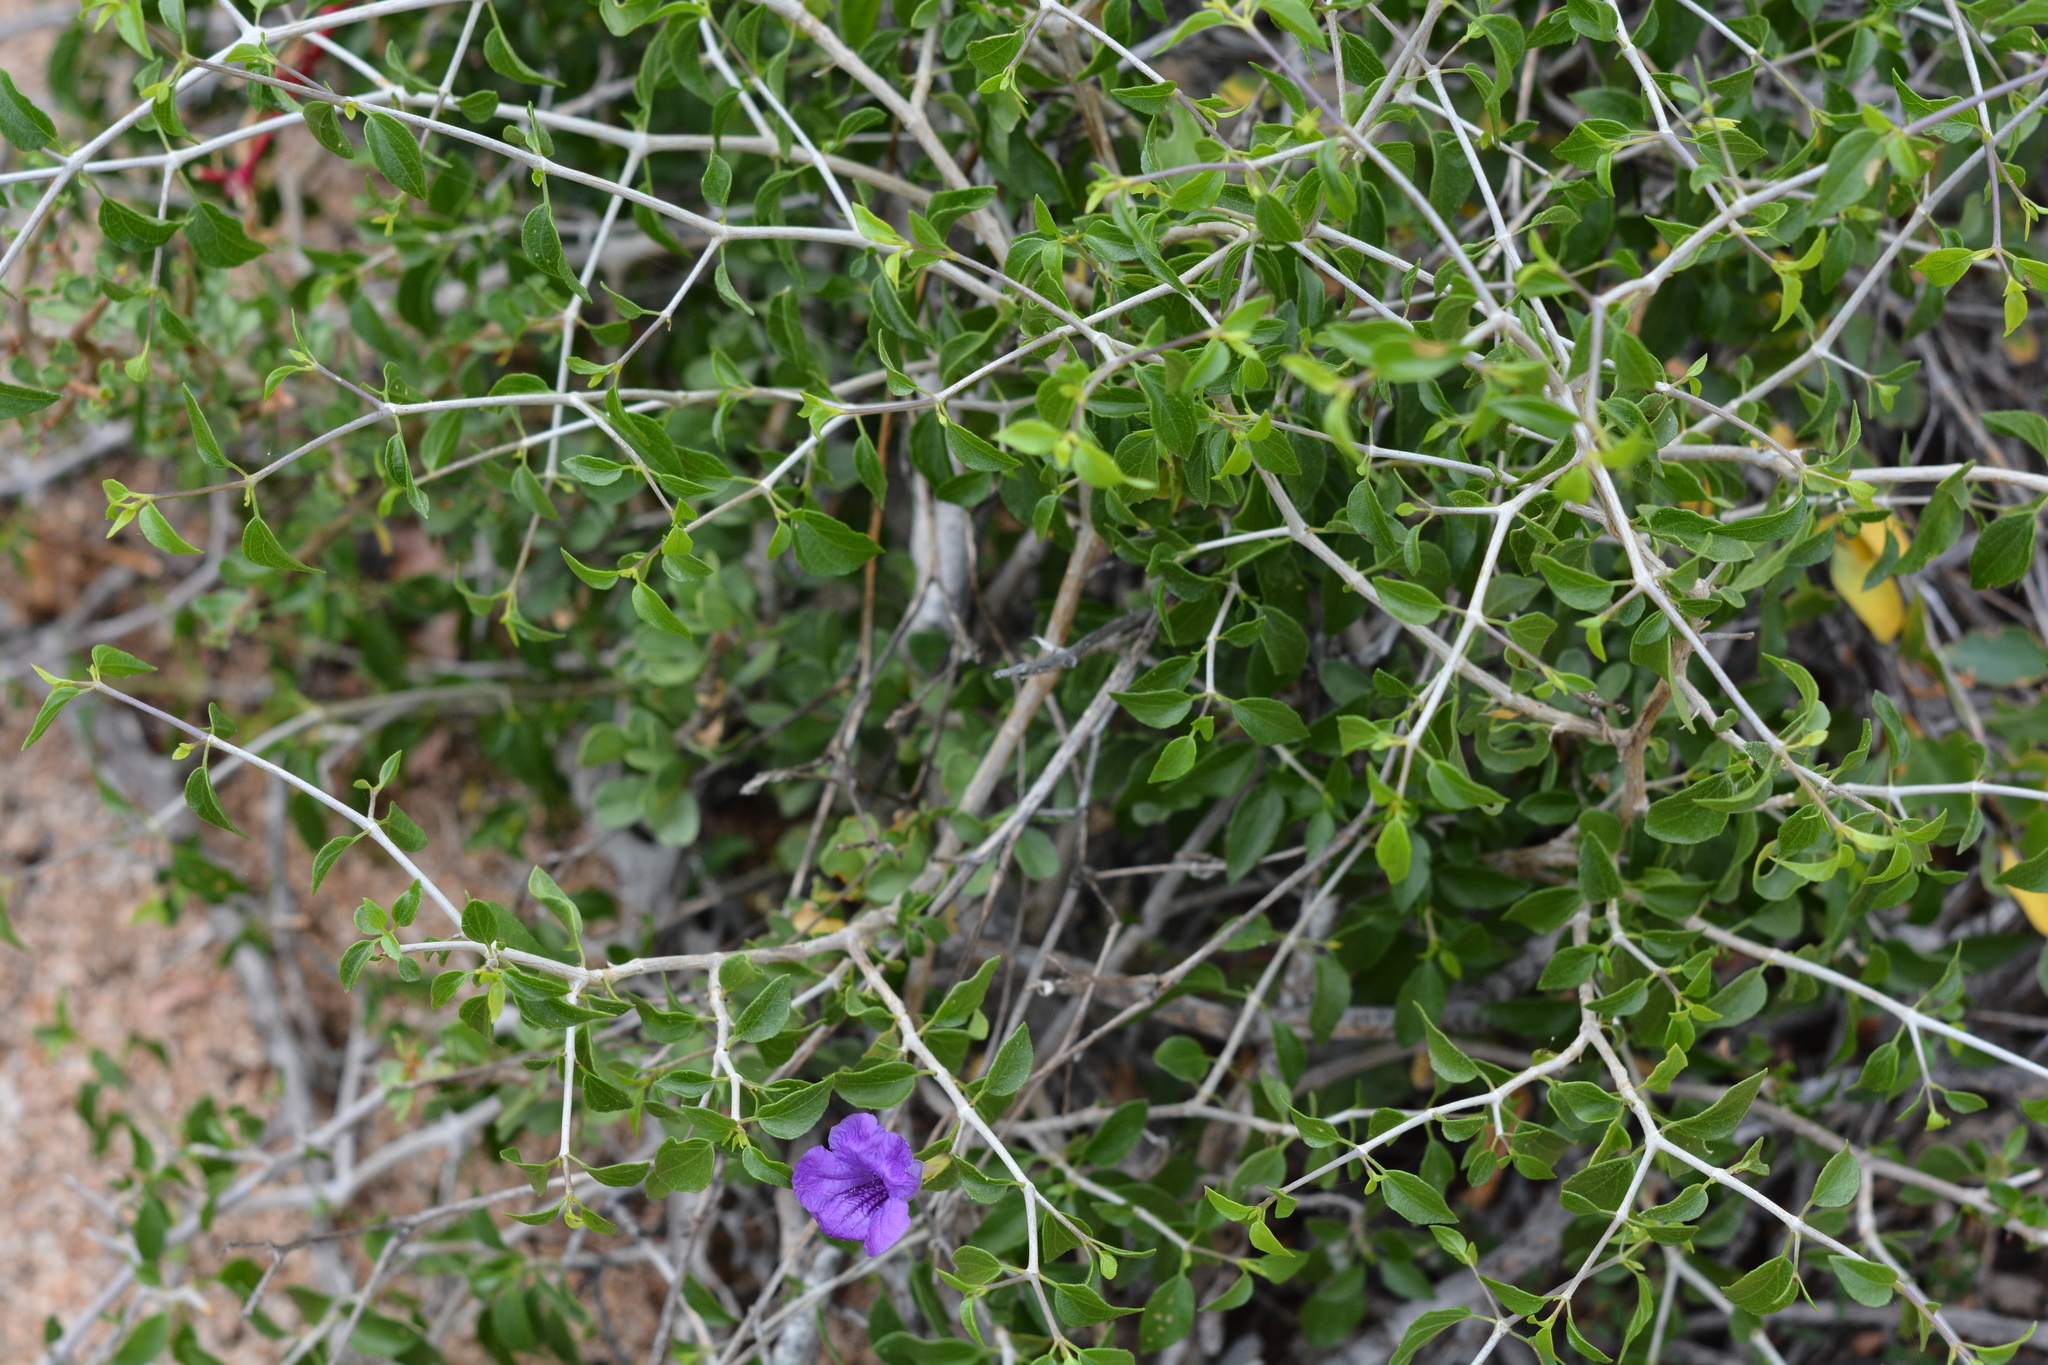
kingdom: Plantae
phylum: Tracheophyta
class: Magnoliopsida
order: Lamiales
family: Acanthaceae
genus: Ruellia
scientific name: Ruellia californica
